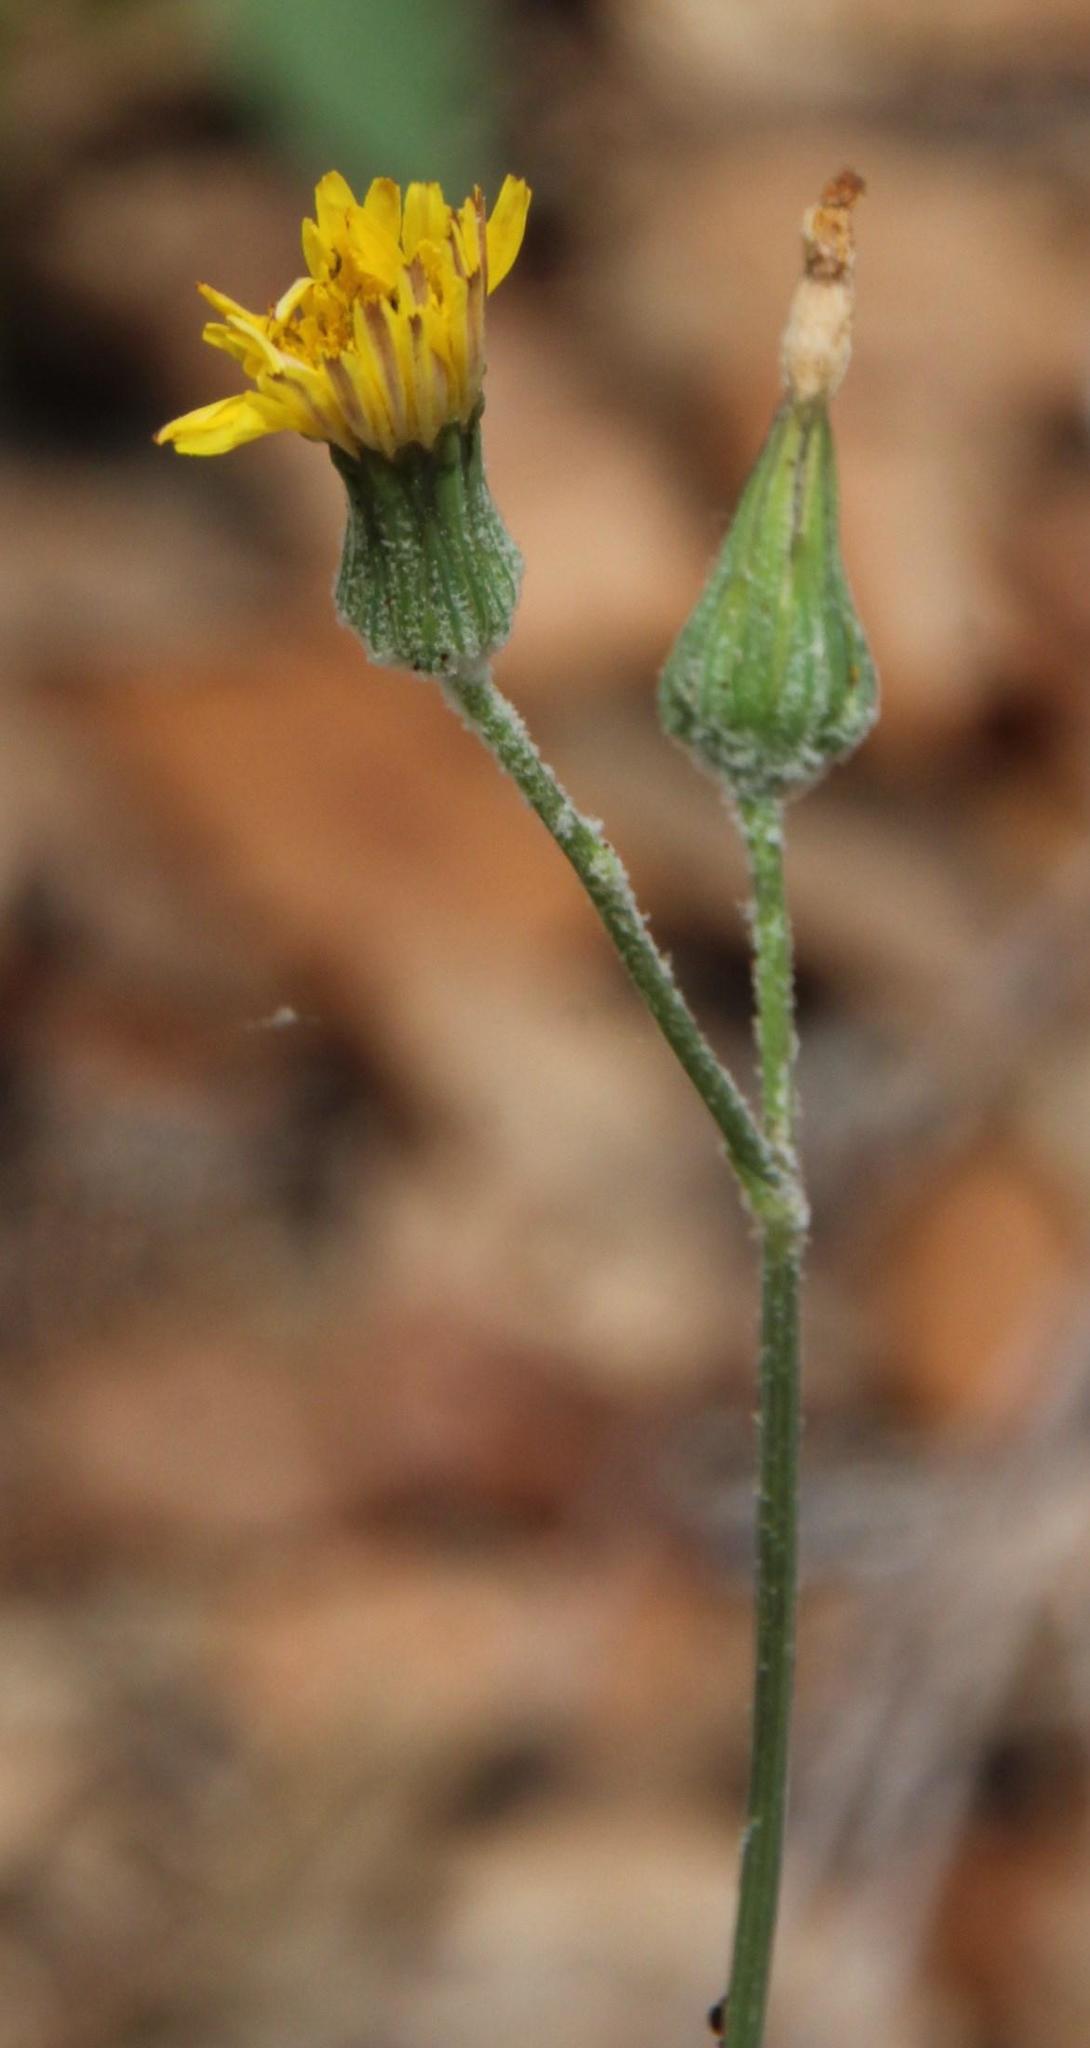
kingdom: Plantae
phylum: Tracheophyta
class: Magnoliopsida
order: Asterales
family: Asteraceae
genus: Sonchus
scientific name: Sonchus oleraceus
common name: Common sowthistle
